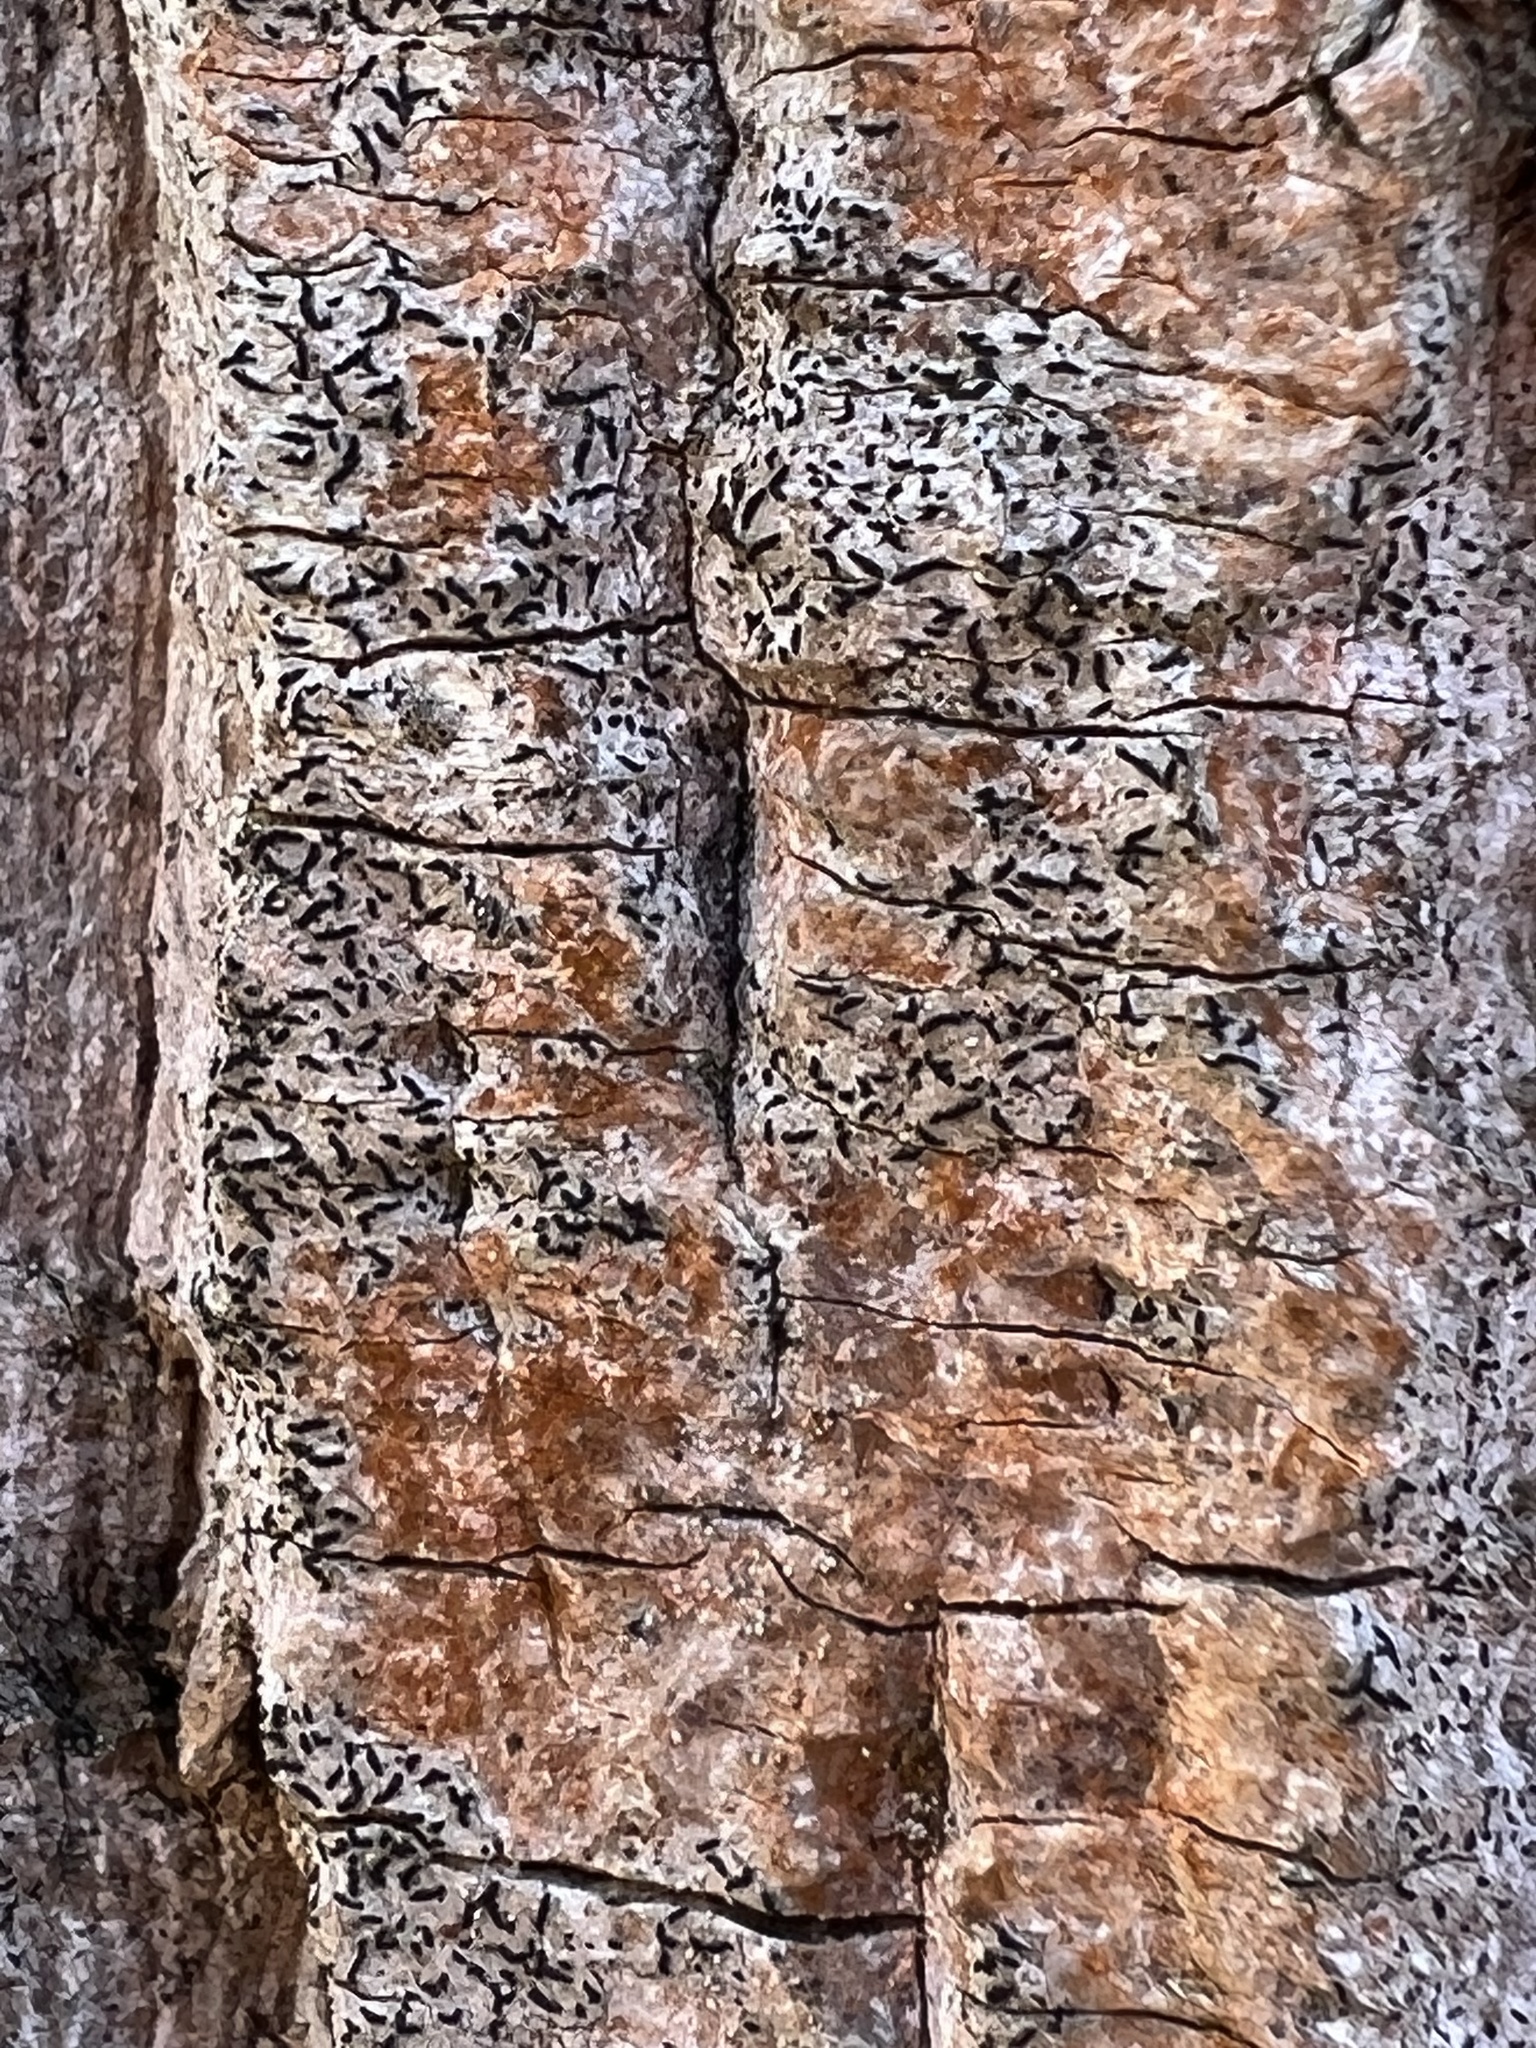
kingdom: Fungi
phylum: Ascomycota
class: Lecanoromycetes
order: Ostropales
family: Graphidaceae
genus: Graphis
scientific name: Graphis scripta
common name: Script lichen
